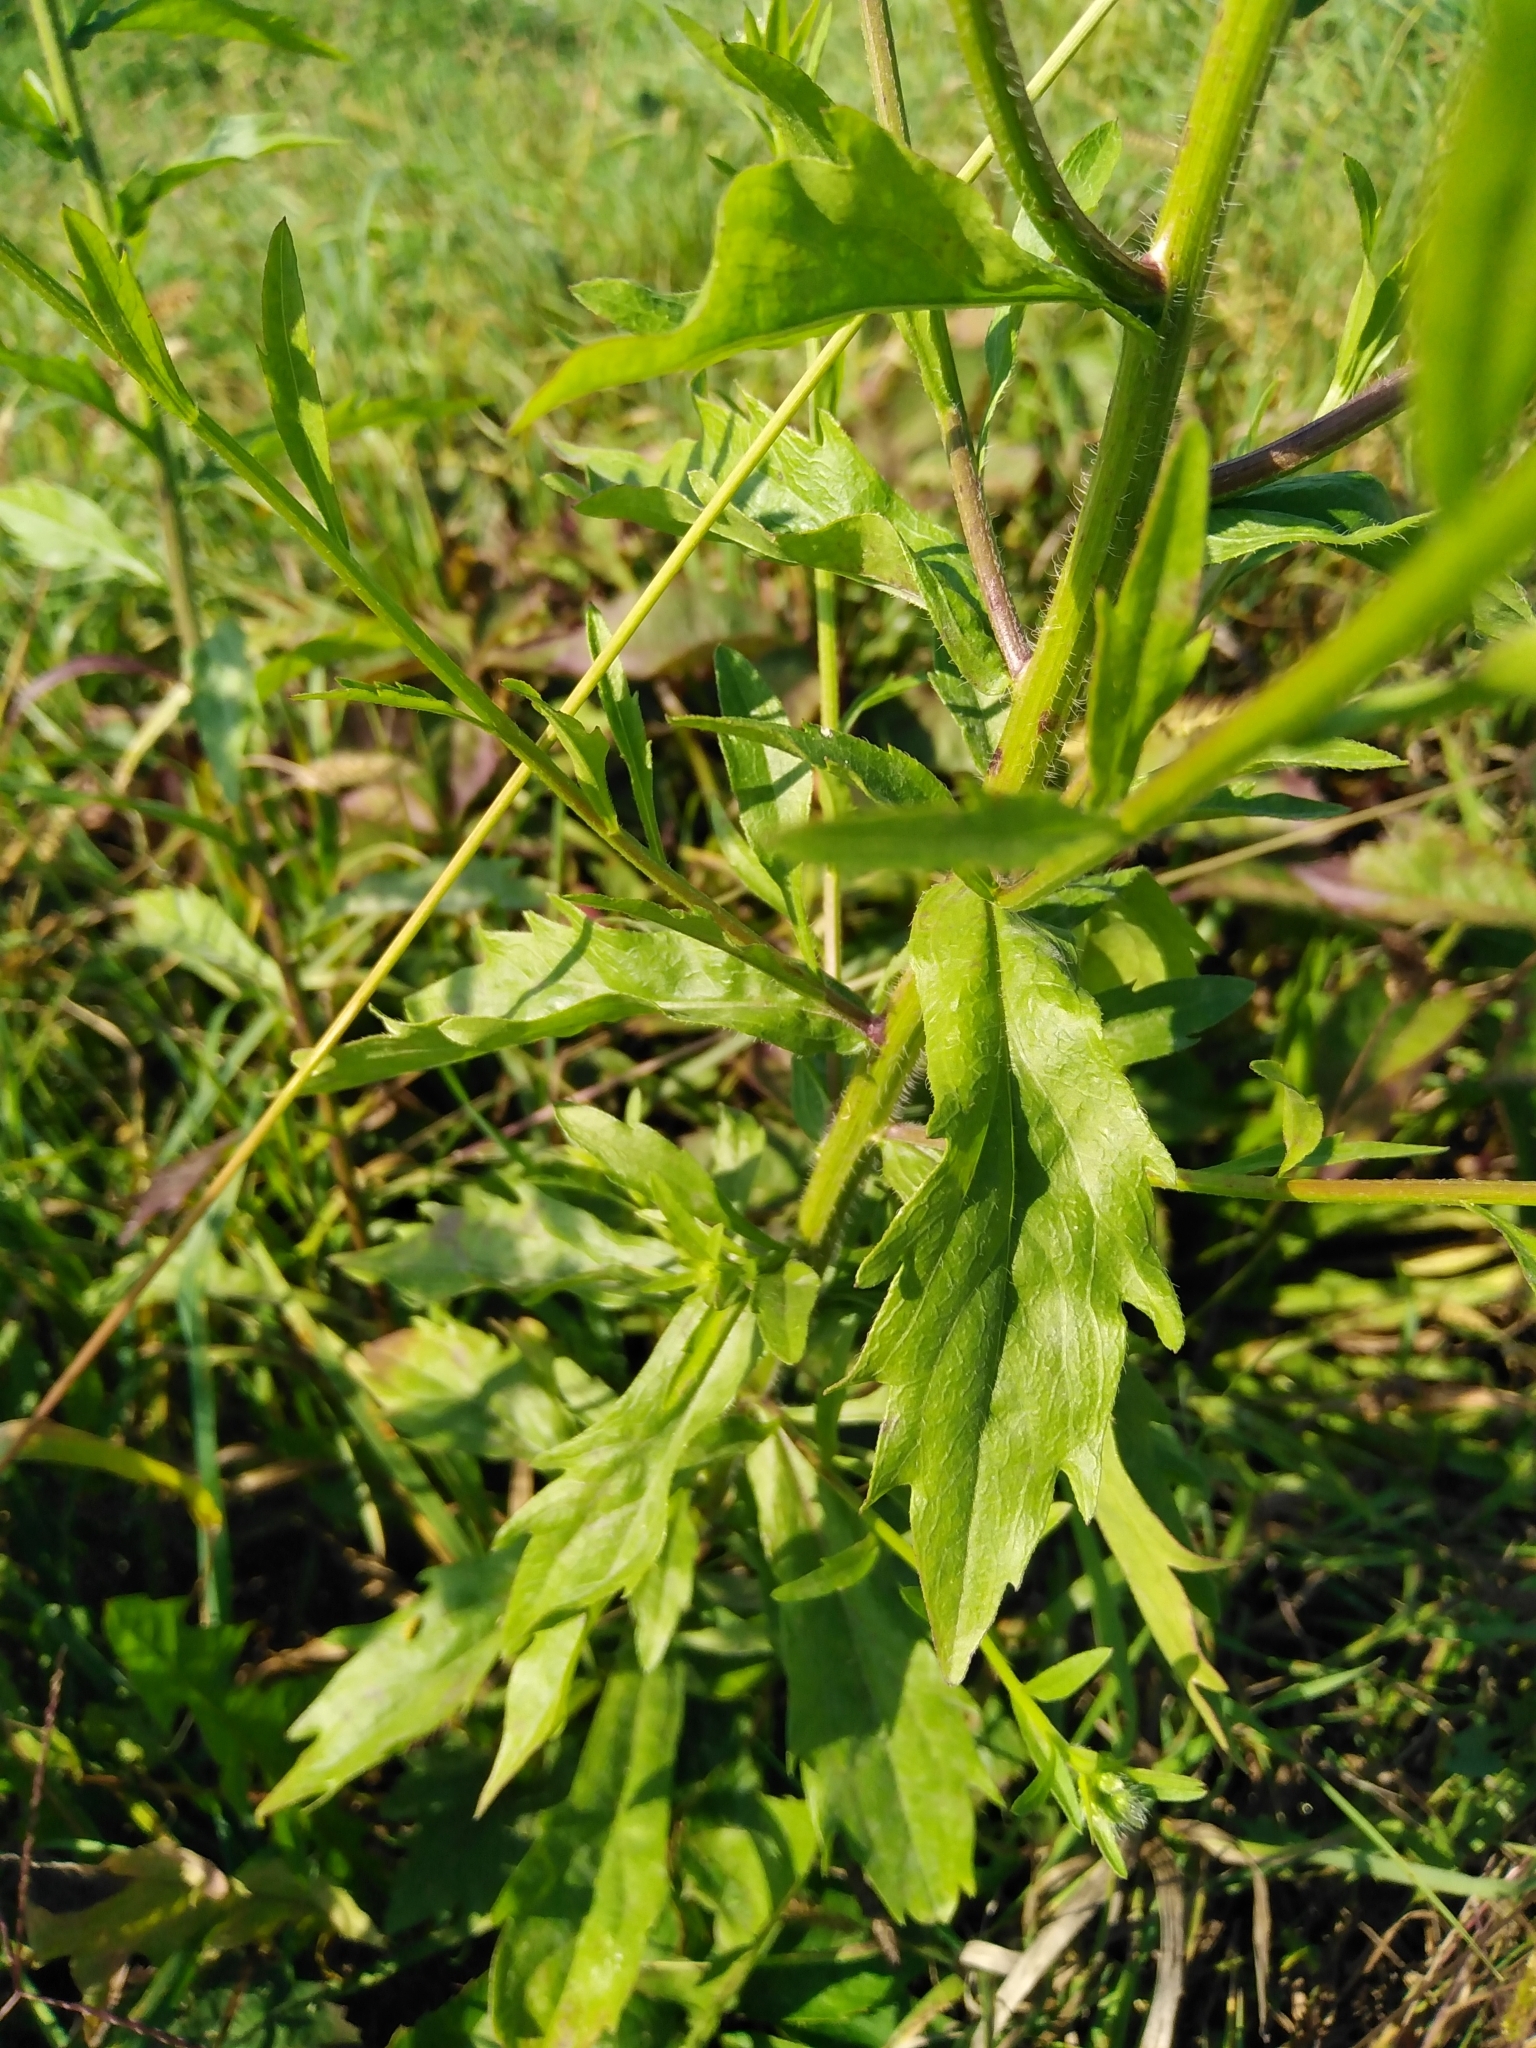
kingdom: Plantae
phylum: Tracheophyta
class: Magnoliopsida
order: Asterales
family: Asteraceae
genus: Erigeron
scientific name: Erigeron annuus
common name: Tall fleabane
